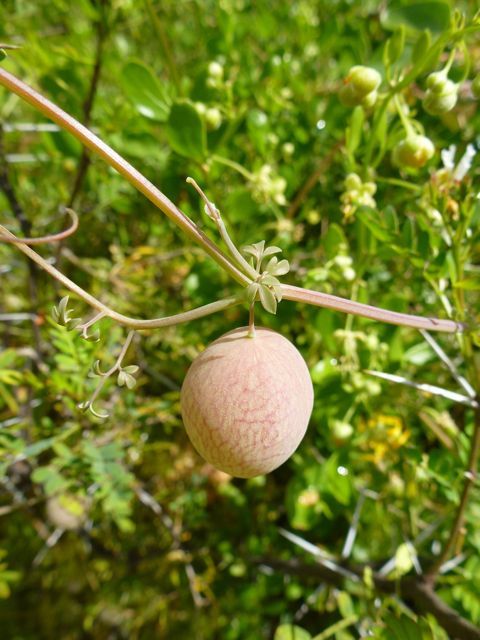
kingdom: Plantae
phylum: Tracheophyta
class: Magnoliopsida
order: Ranunculales
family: Papaveraceae
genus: Cysticapnos
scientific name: Cysticapnos vesicaria
